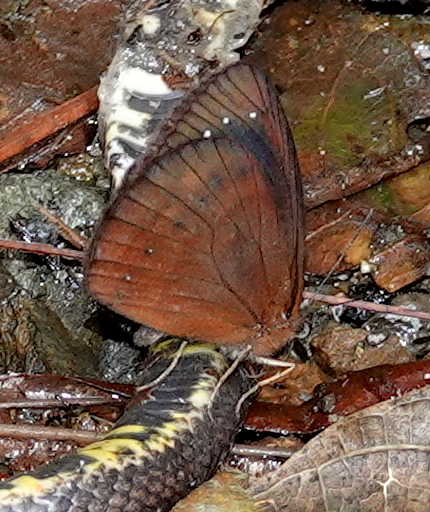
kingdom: Animalia
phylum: Arthropoda
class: Insecta
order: Lepidoptera
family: Nymphalidae
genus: Lymanopoda
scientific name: Lymanopoda caucana
